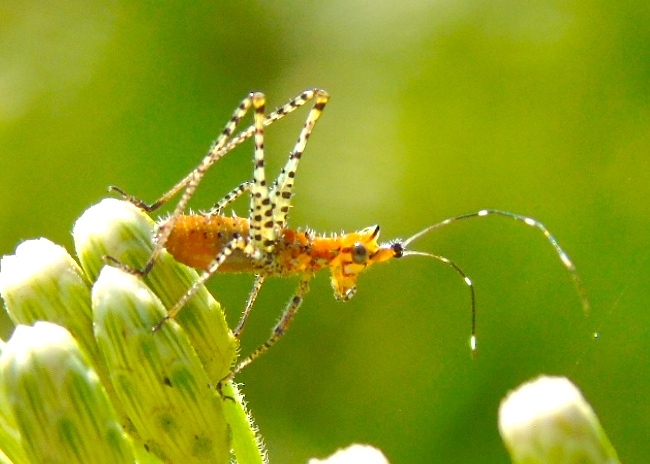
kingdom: Animalia
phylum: Arthropoda
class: Insecta
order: Orthoptera
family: Tettigoniidae
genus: Scudderia
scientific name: Scudderia
